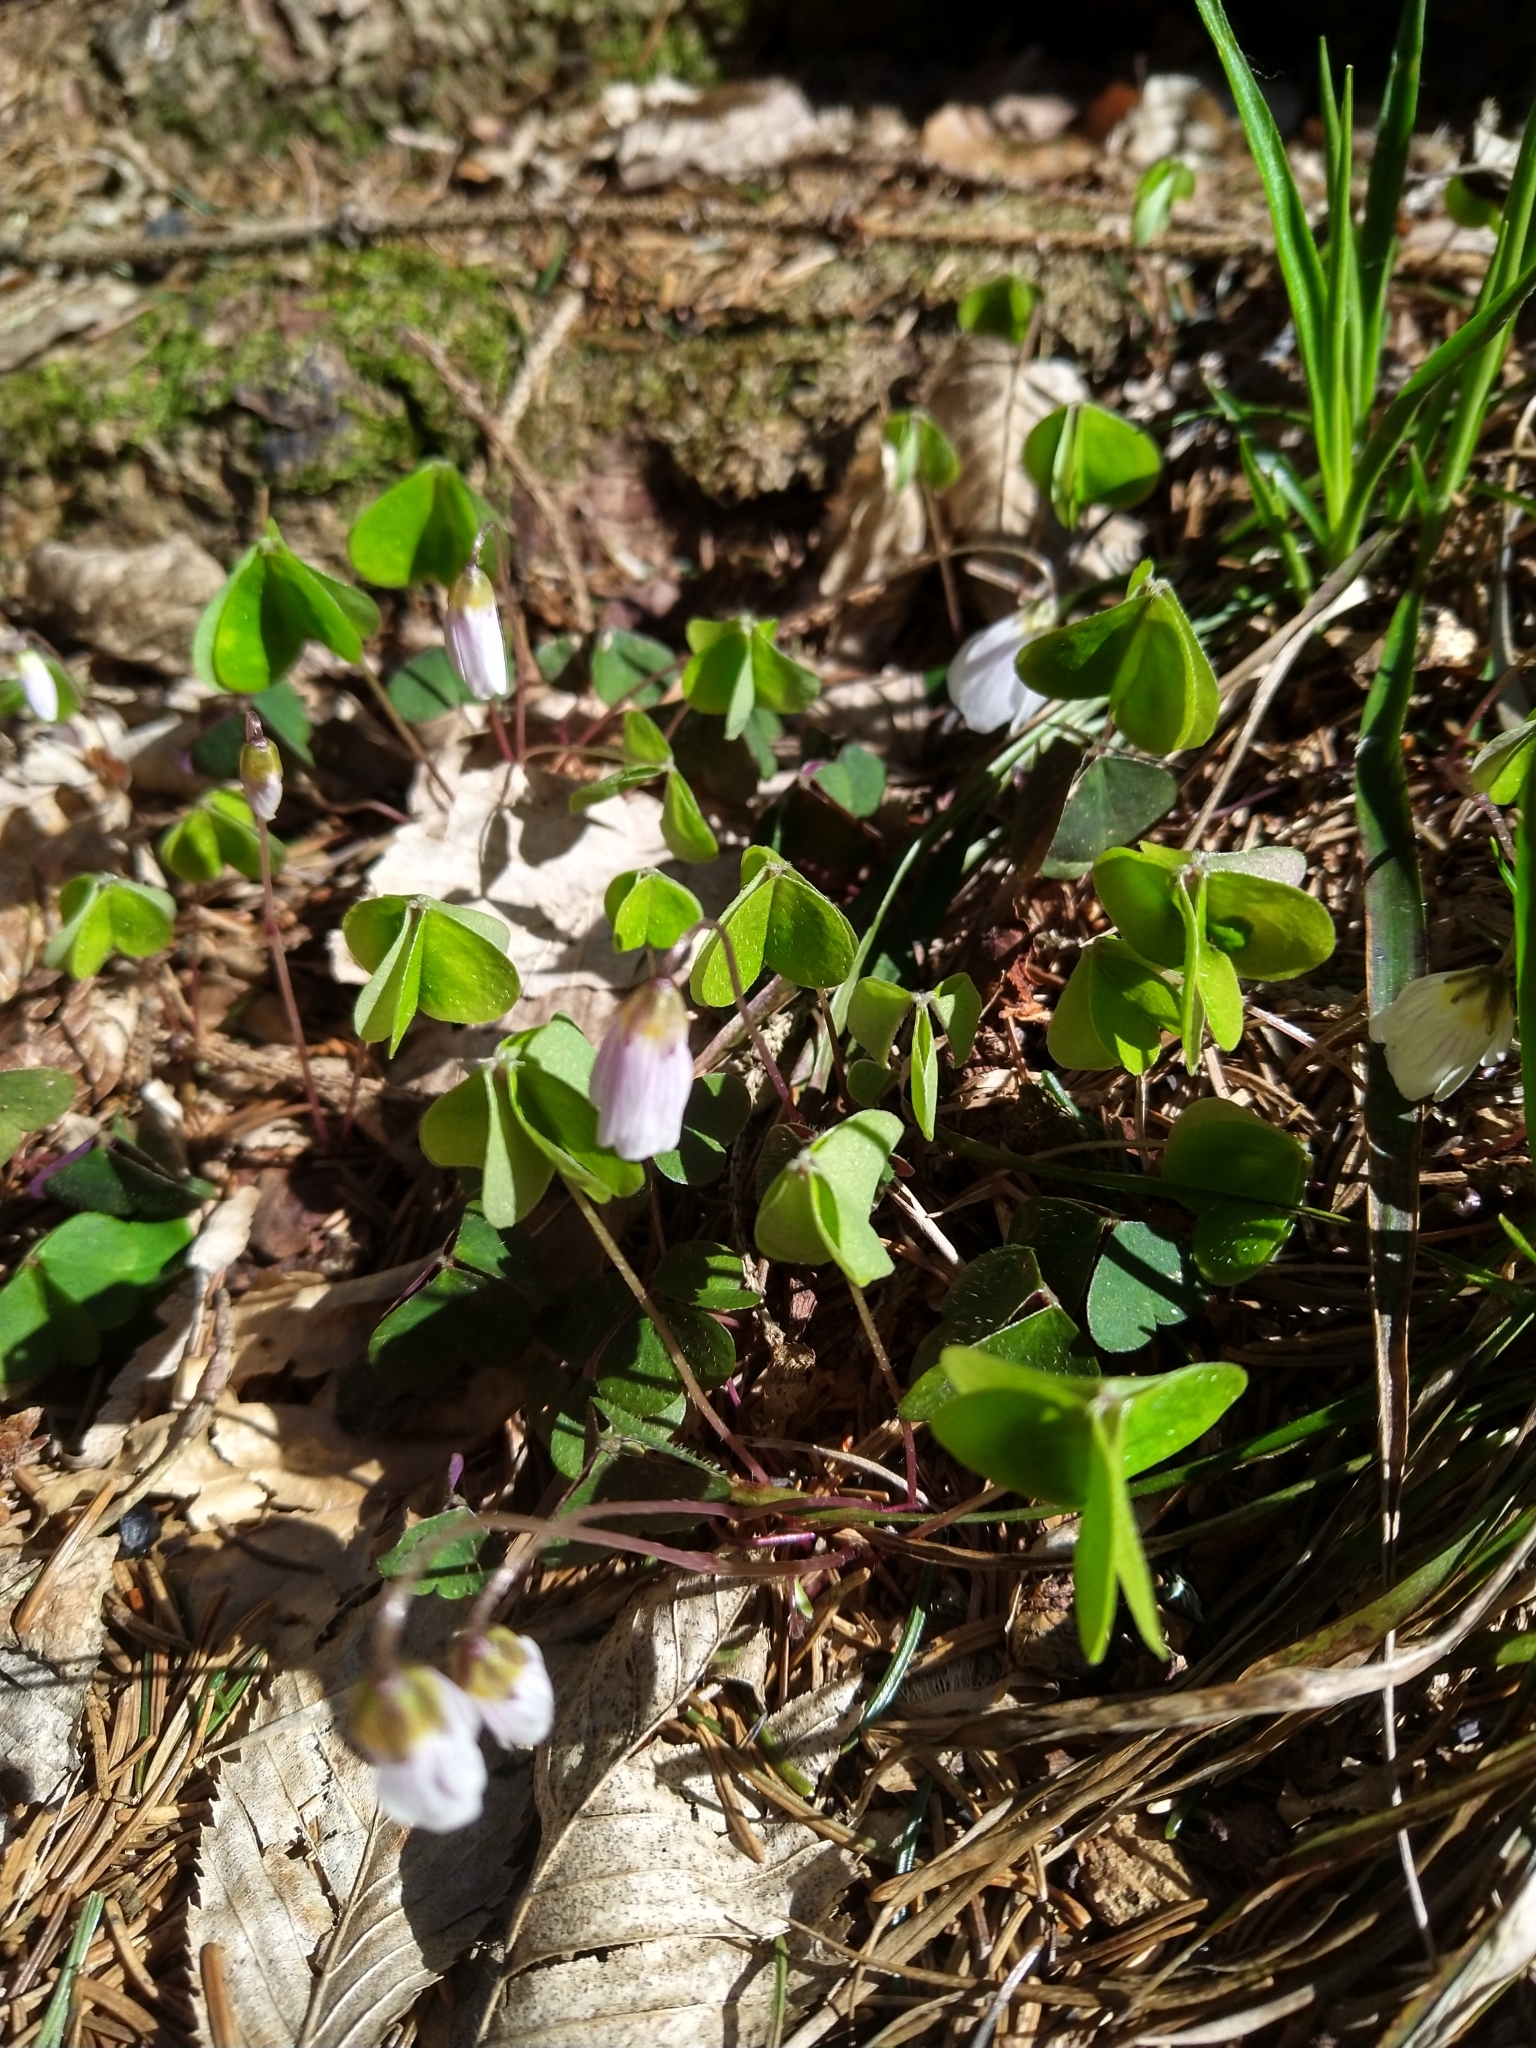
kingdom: Plantae
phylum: Tracheophyta
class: Magnoliopsida
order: Oxalidales
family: Oxalidaceae
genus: Oxalis
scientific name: Oxalis acetosella
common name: Wood-sorrel
